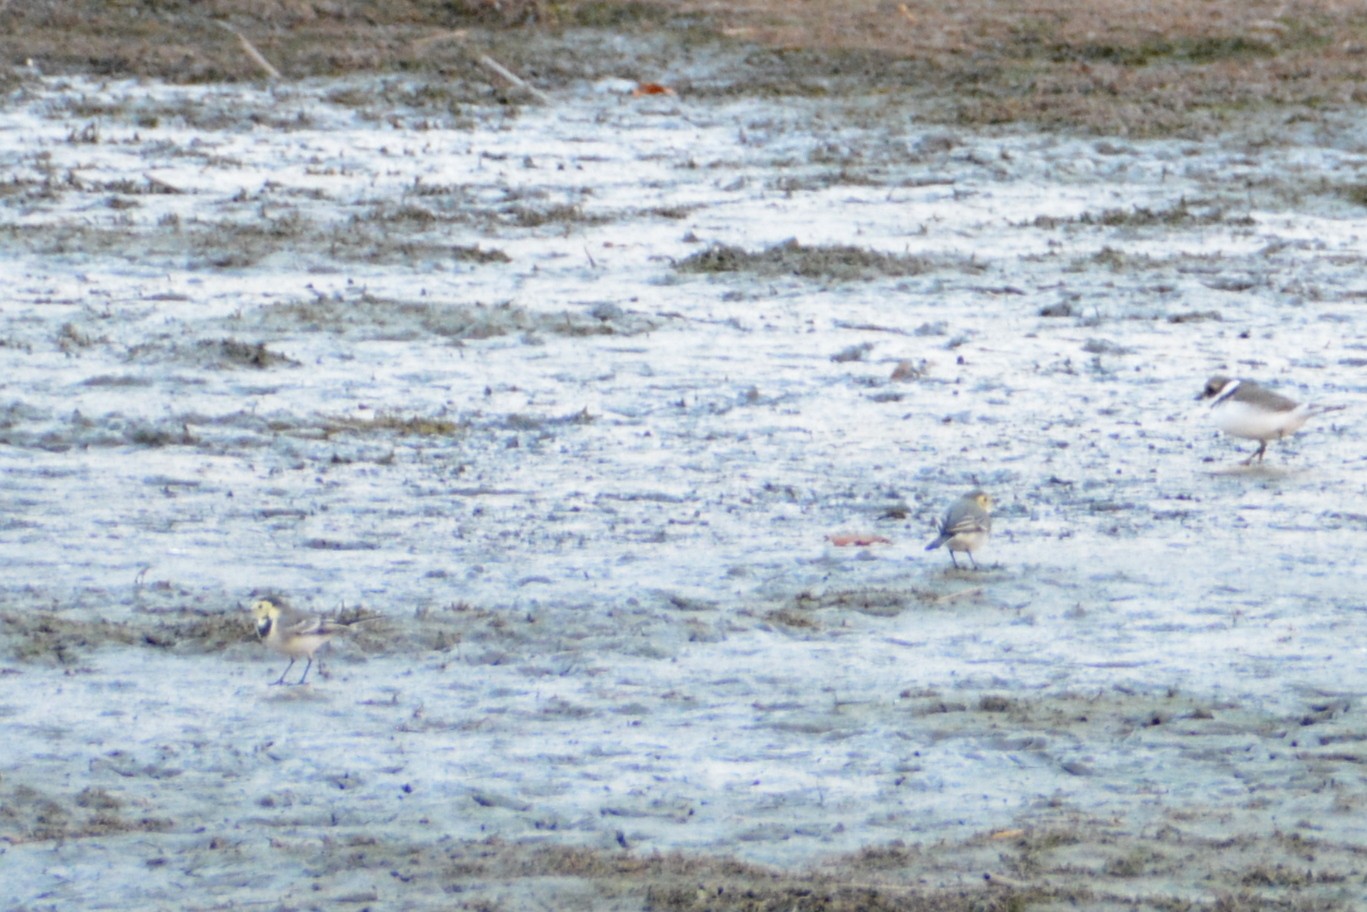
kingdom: Animalia
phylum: Chordata
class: Aves
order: Passeriformes
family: Motacillidae
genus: Motacilla
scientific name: Motacilla alba
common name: White wagtail
